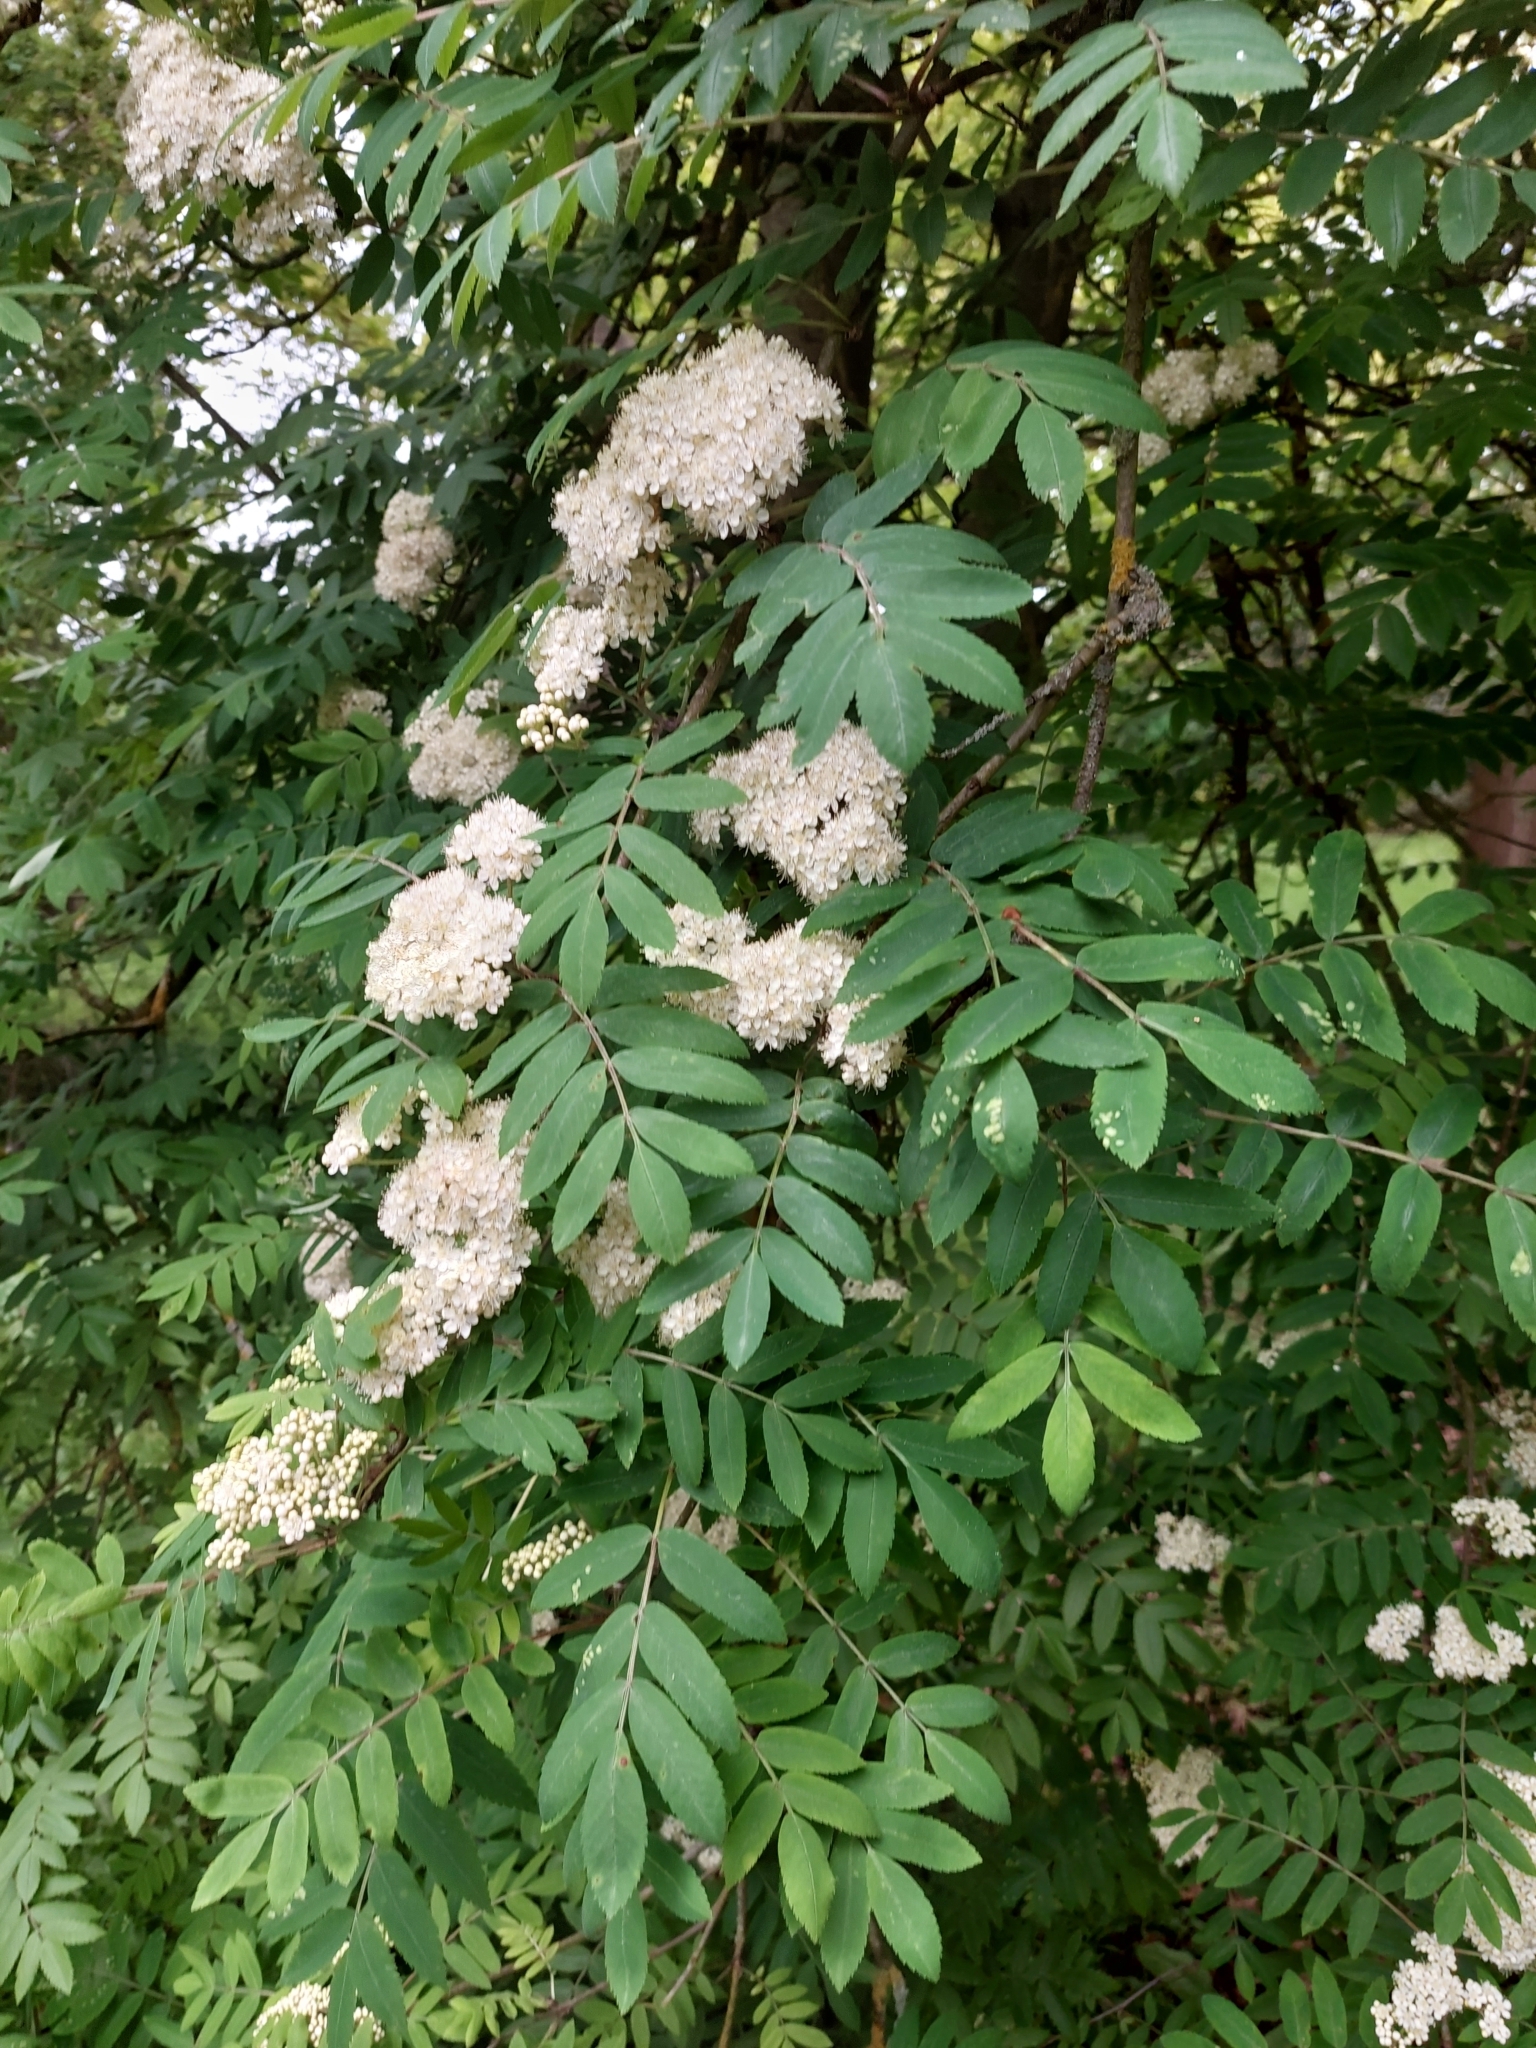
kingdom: Plantae
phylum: Tracheophyta
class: Magnoliopsida
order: Rosales
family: Rosaceae
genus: Sorbus
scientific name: Sorbus aucuparia
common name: Rowan
